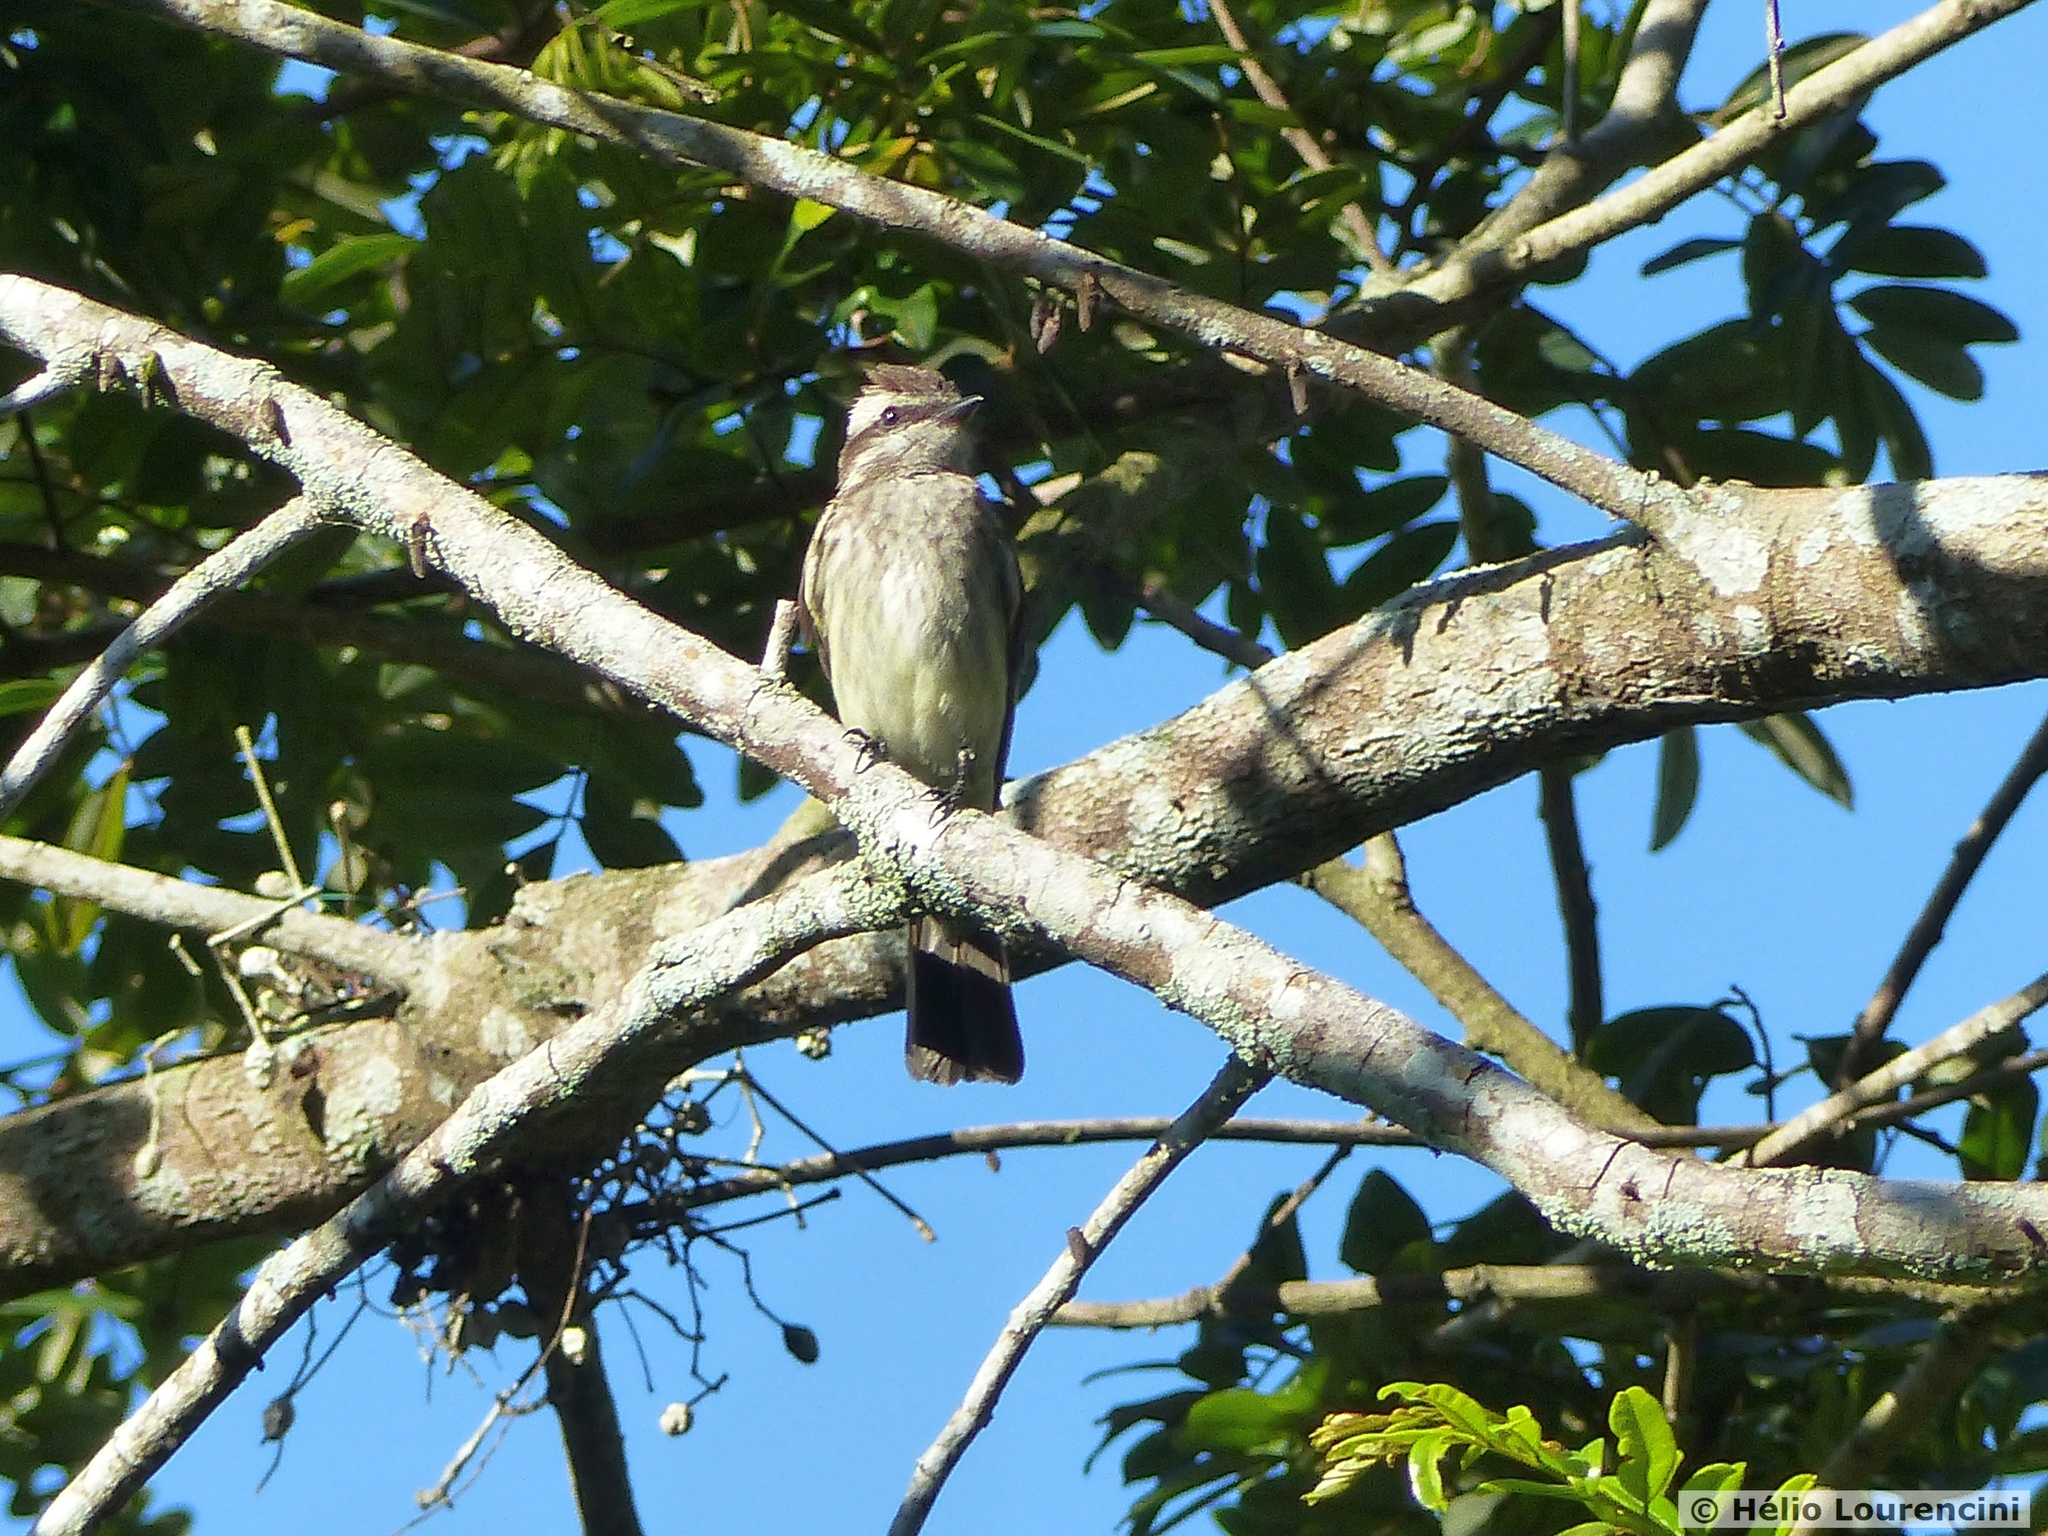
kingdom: Animalia
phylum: Chordata
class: Aves
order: Passeriformes
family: Tyrannidae
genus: Empidonomus
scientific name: Empidonomus varius
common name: Variegated flycatcher
